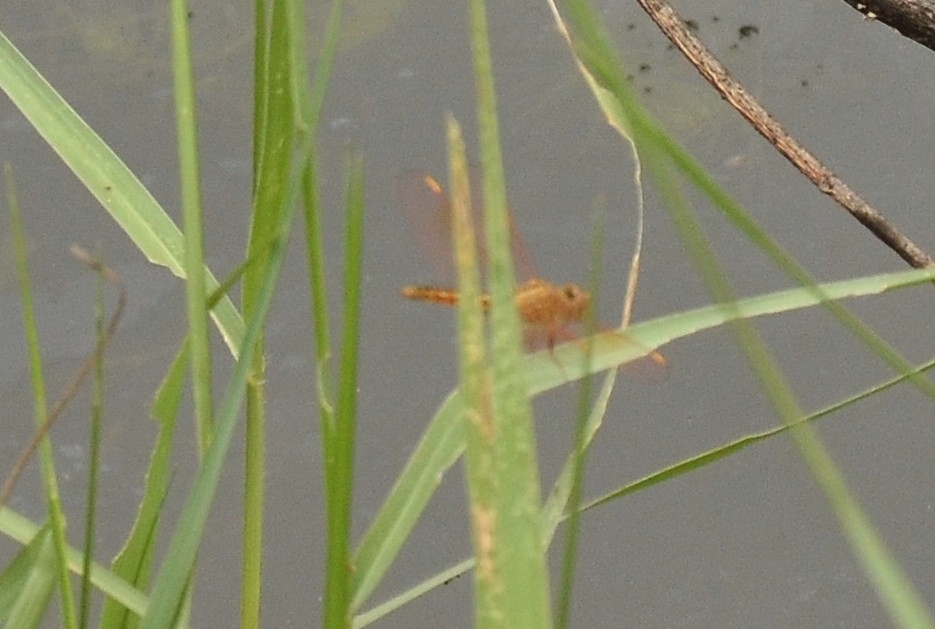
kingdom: Animalia
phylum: Arthropoda
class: Insecta
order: Odonata
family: Libellulidae
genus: Brachythemis
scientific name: Brachythemis contaminata
